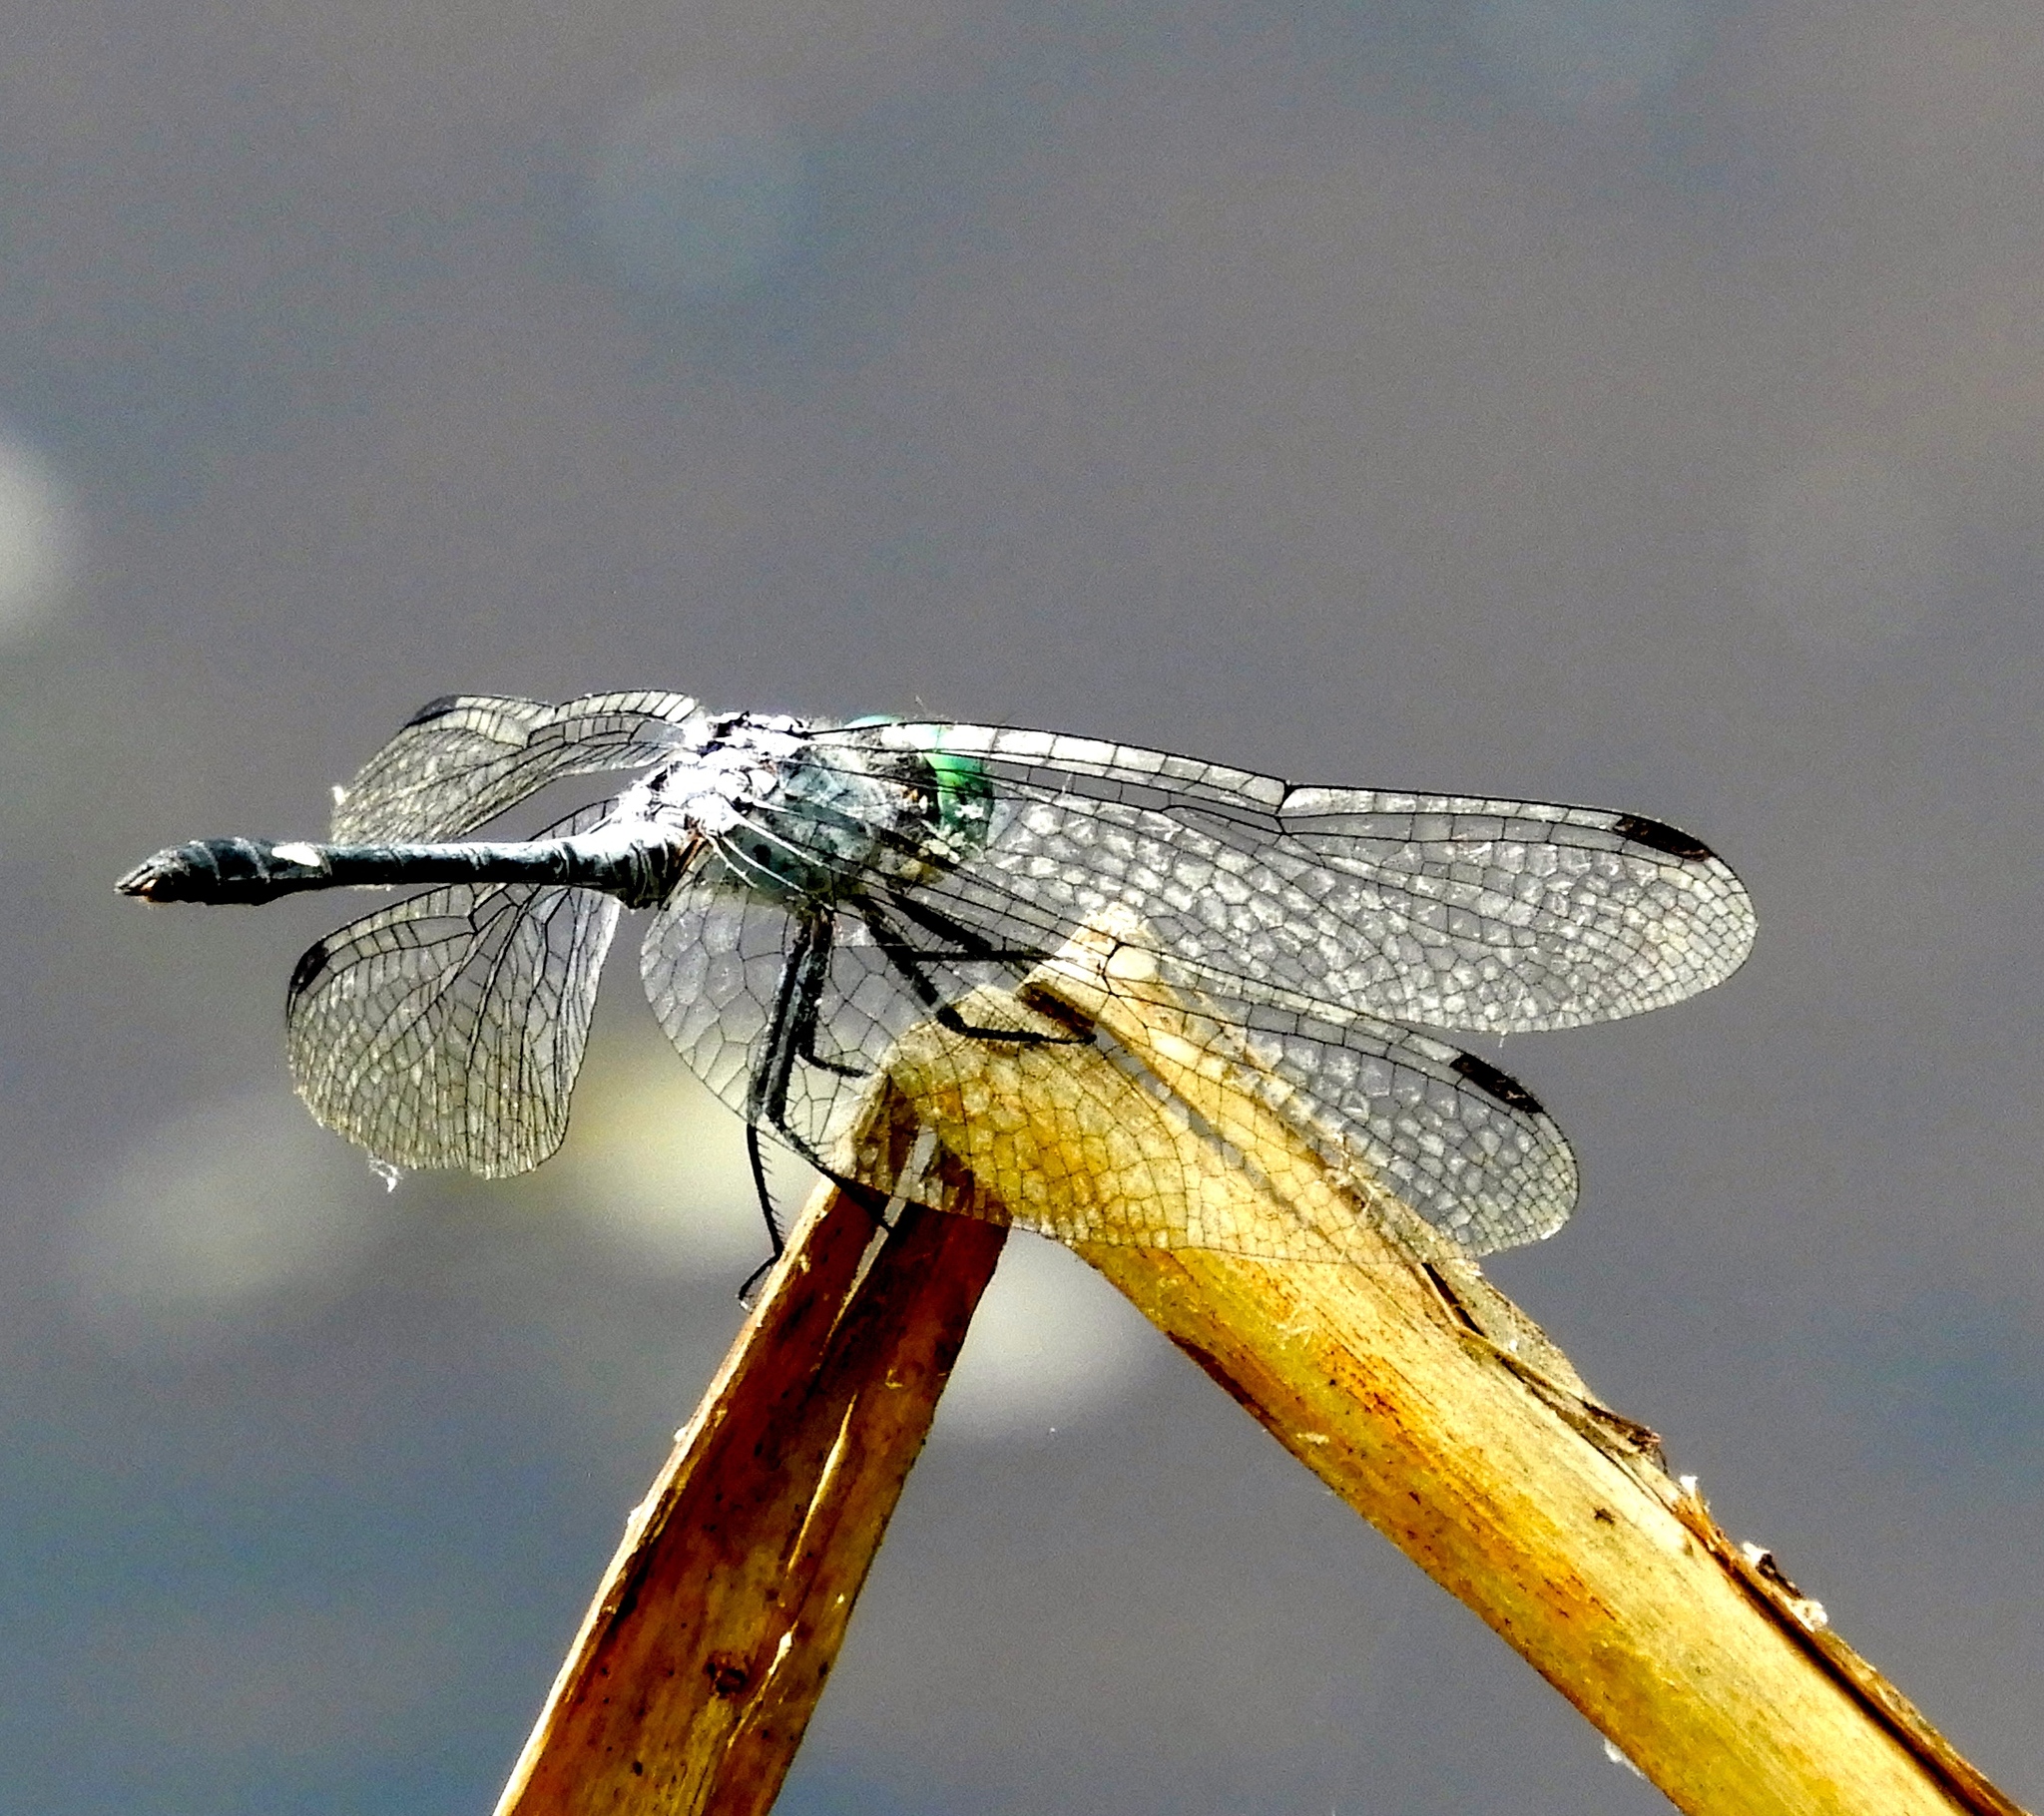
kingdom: Animalia
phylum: Arthropoda
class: Insecta
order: Odonata
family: Libellulidae
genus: Micrathyria
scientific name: Micrathyria aequalis
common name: Spot-tailed dasher
